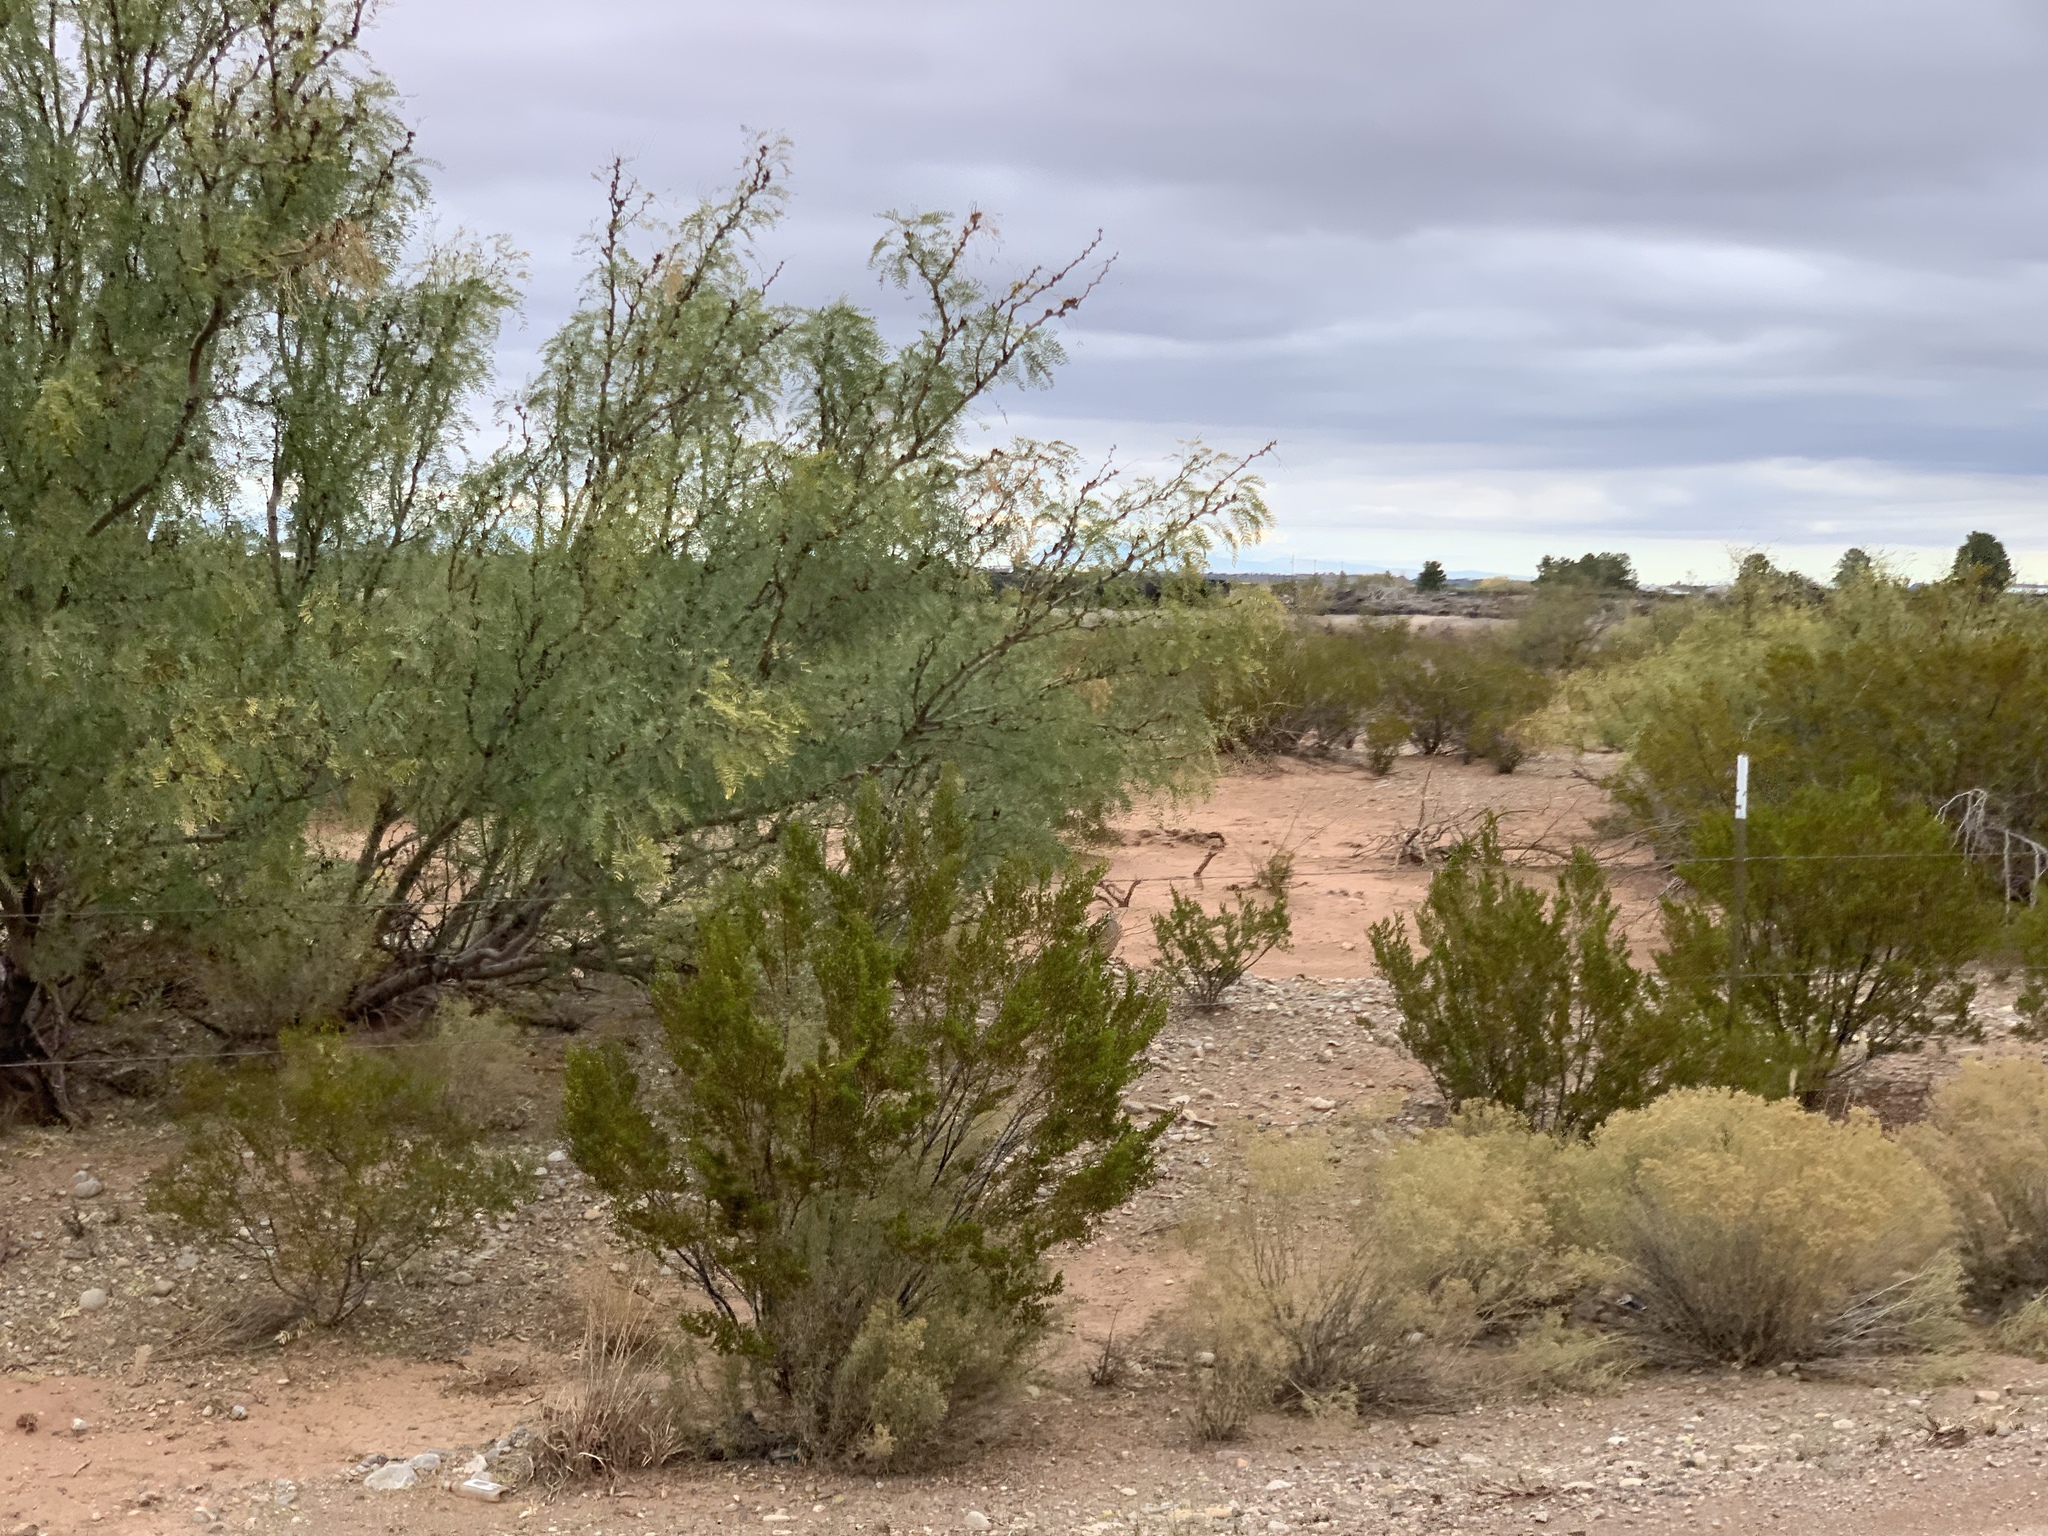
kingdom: Plantae
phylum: Tracheophyta
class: Magnoliopsida
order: Zygophyllales
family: Zygophyllaceae
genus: Larrea
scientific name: Larrea tridentata
